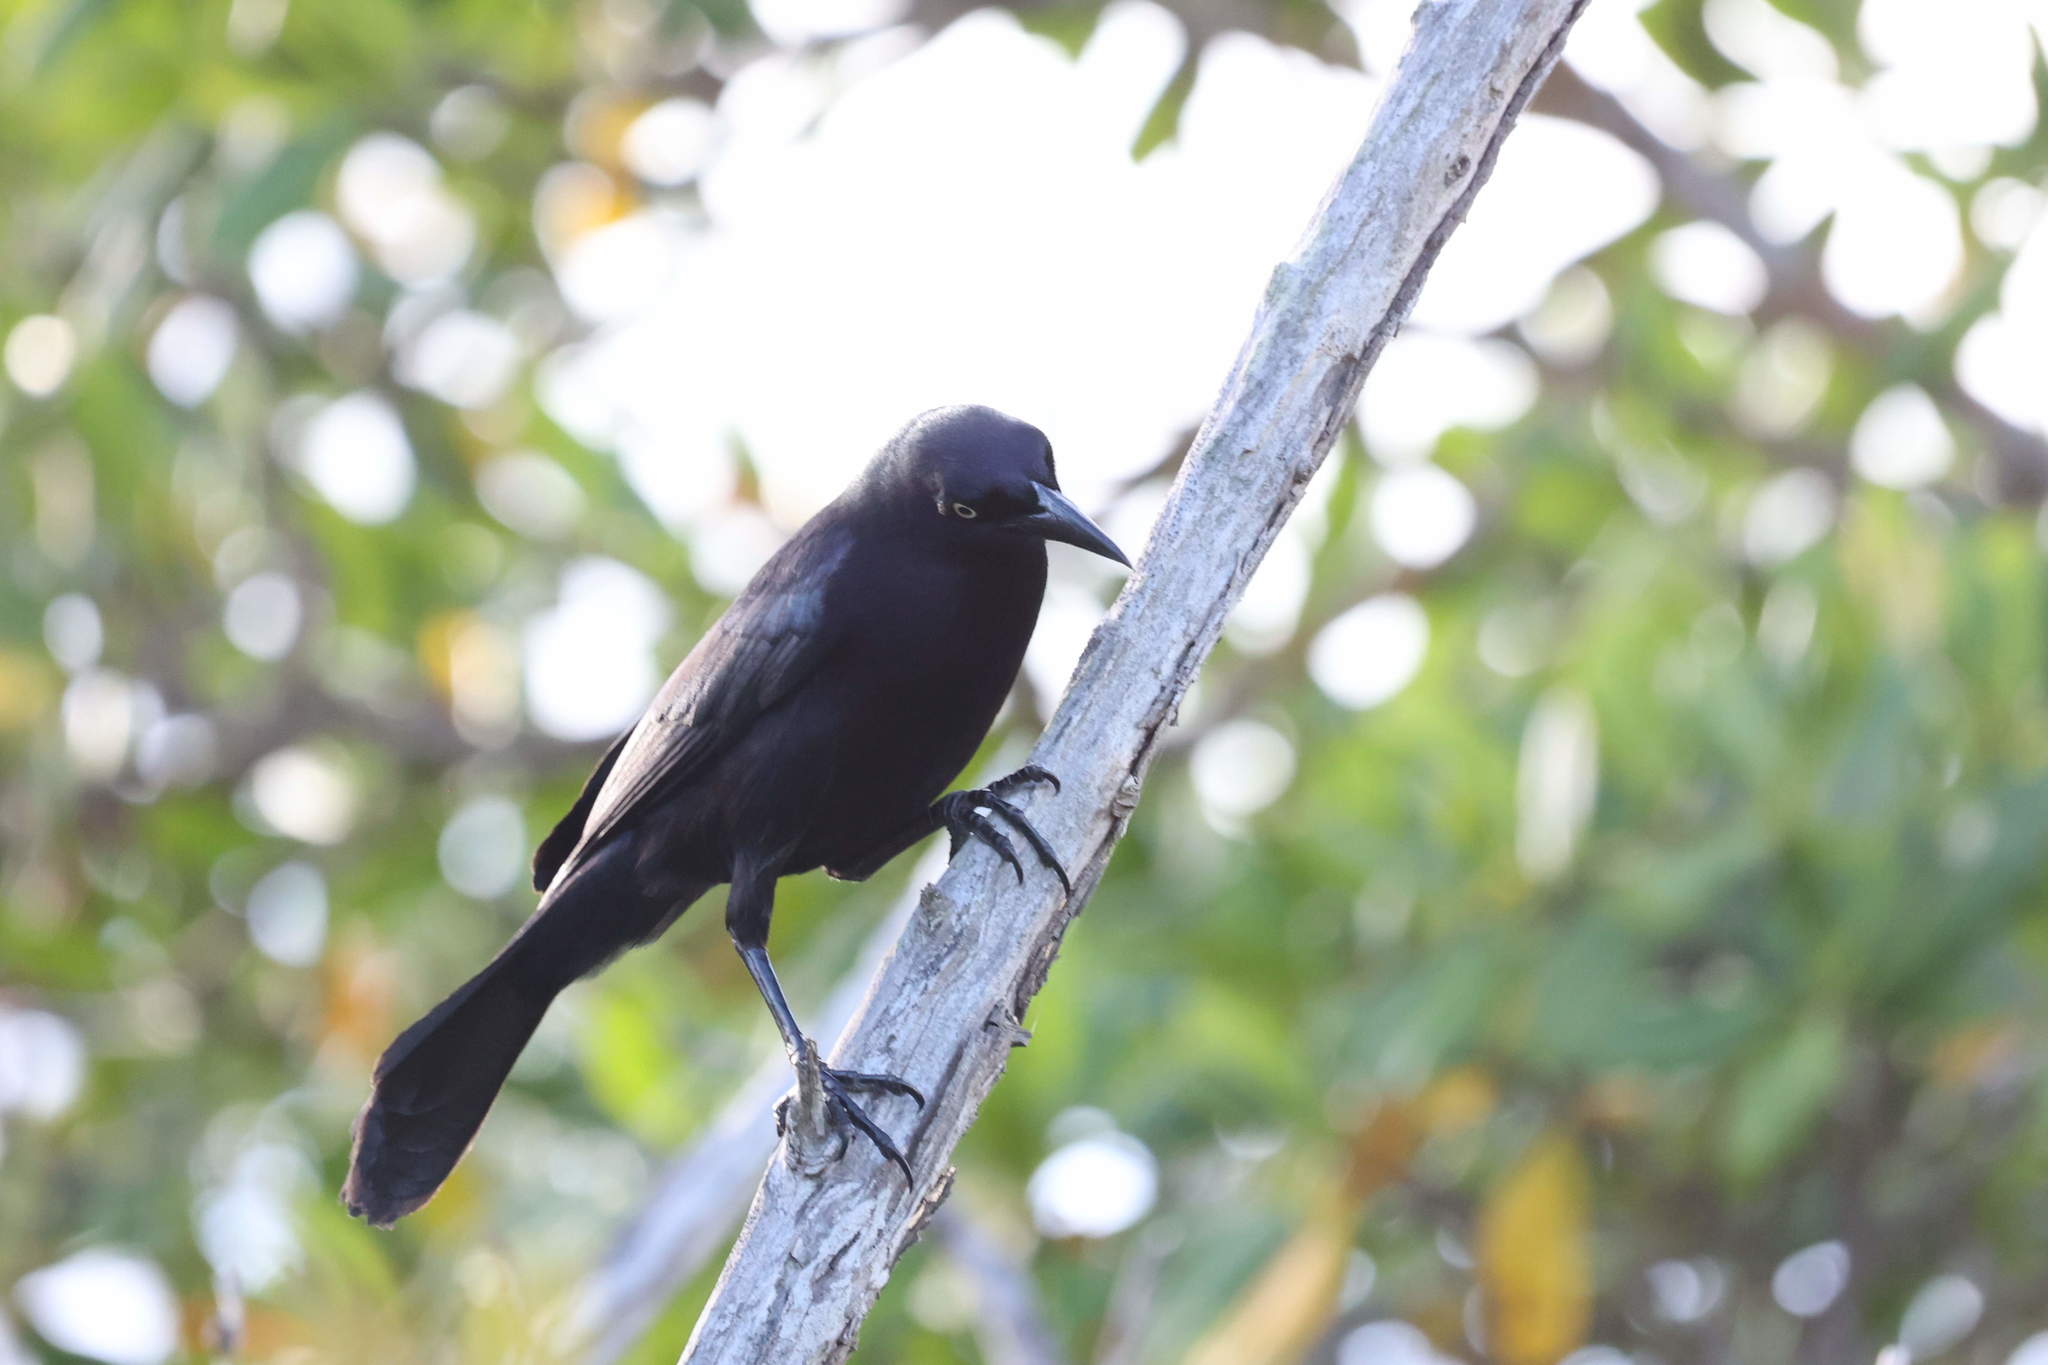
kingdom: Animalia
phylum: Chordata
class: Aves
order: Passeriformes
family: Icteridae
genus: Quiscalus
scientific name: Quiscalus lugubris
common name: Carib grackle
